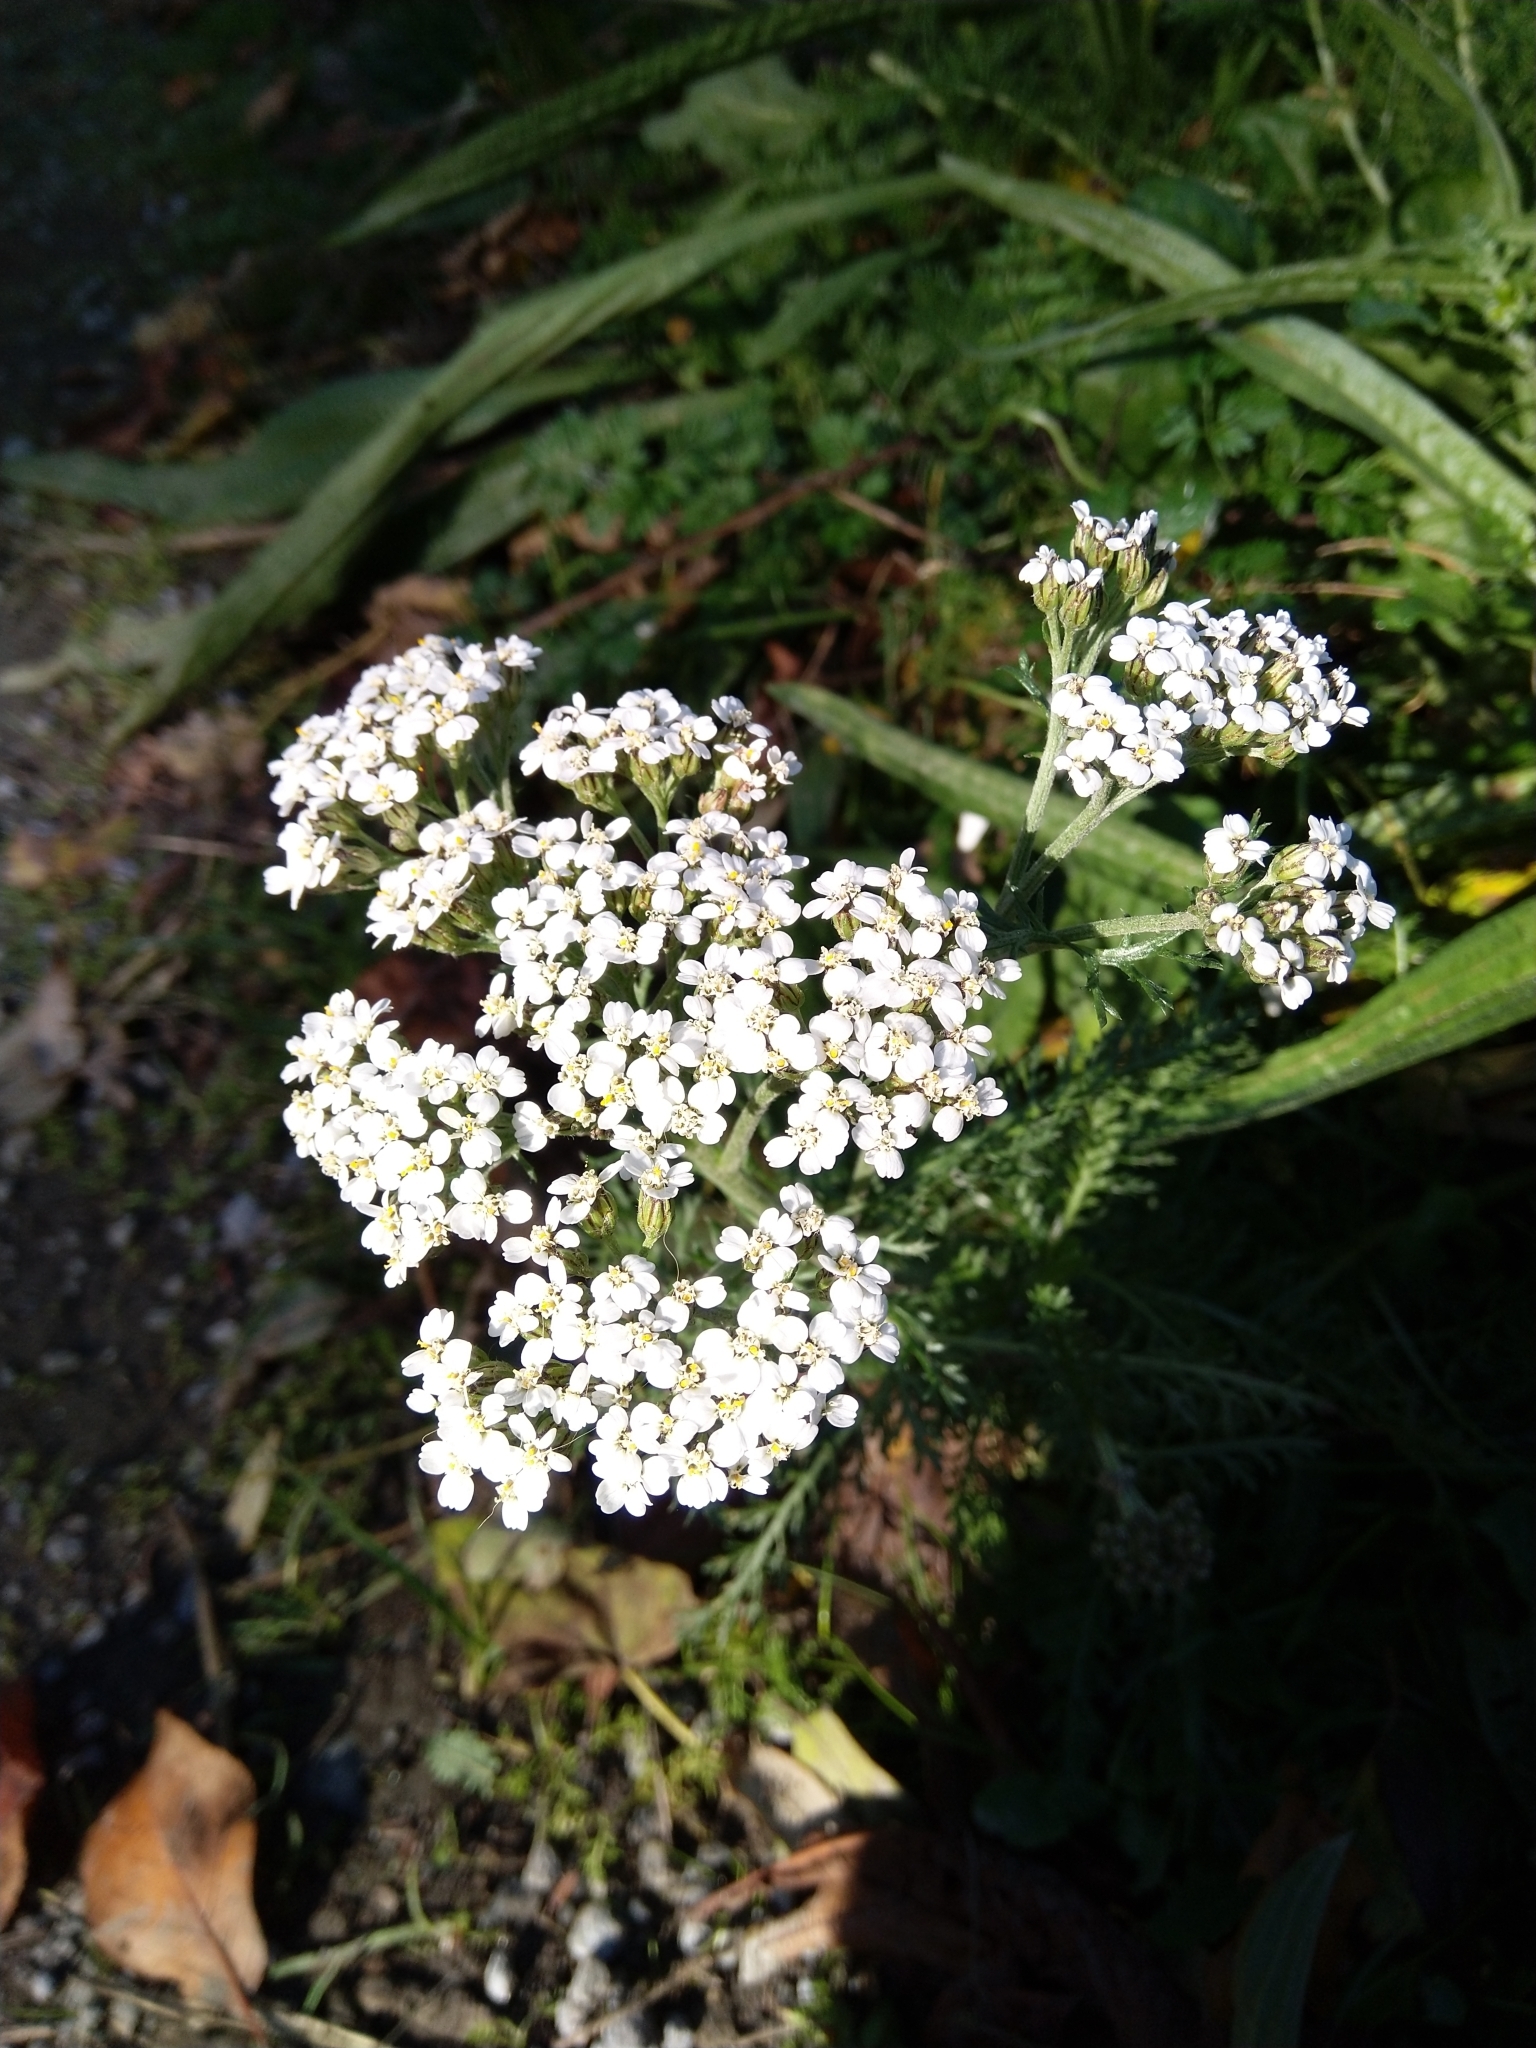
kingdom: Plantae
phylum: Tracheophyta
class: Magnoliopsida
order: Asterales
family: Asteraceae
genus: Achillea
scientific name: Achillea millefolium
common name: Yarrow
